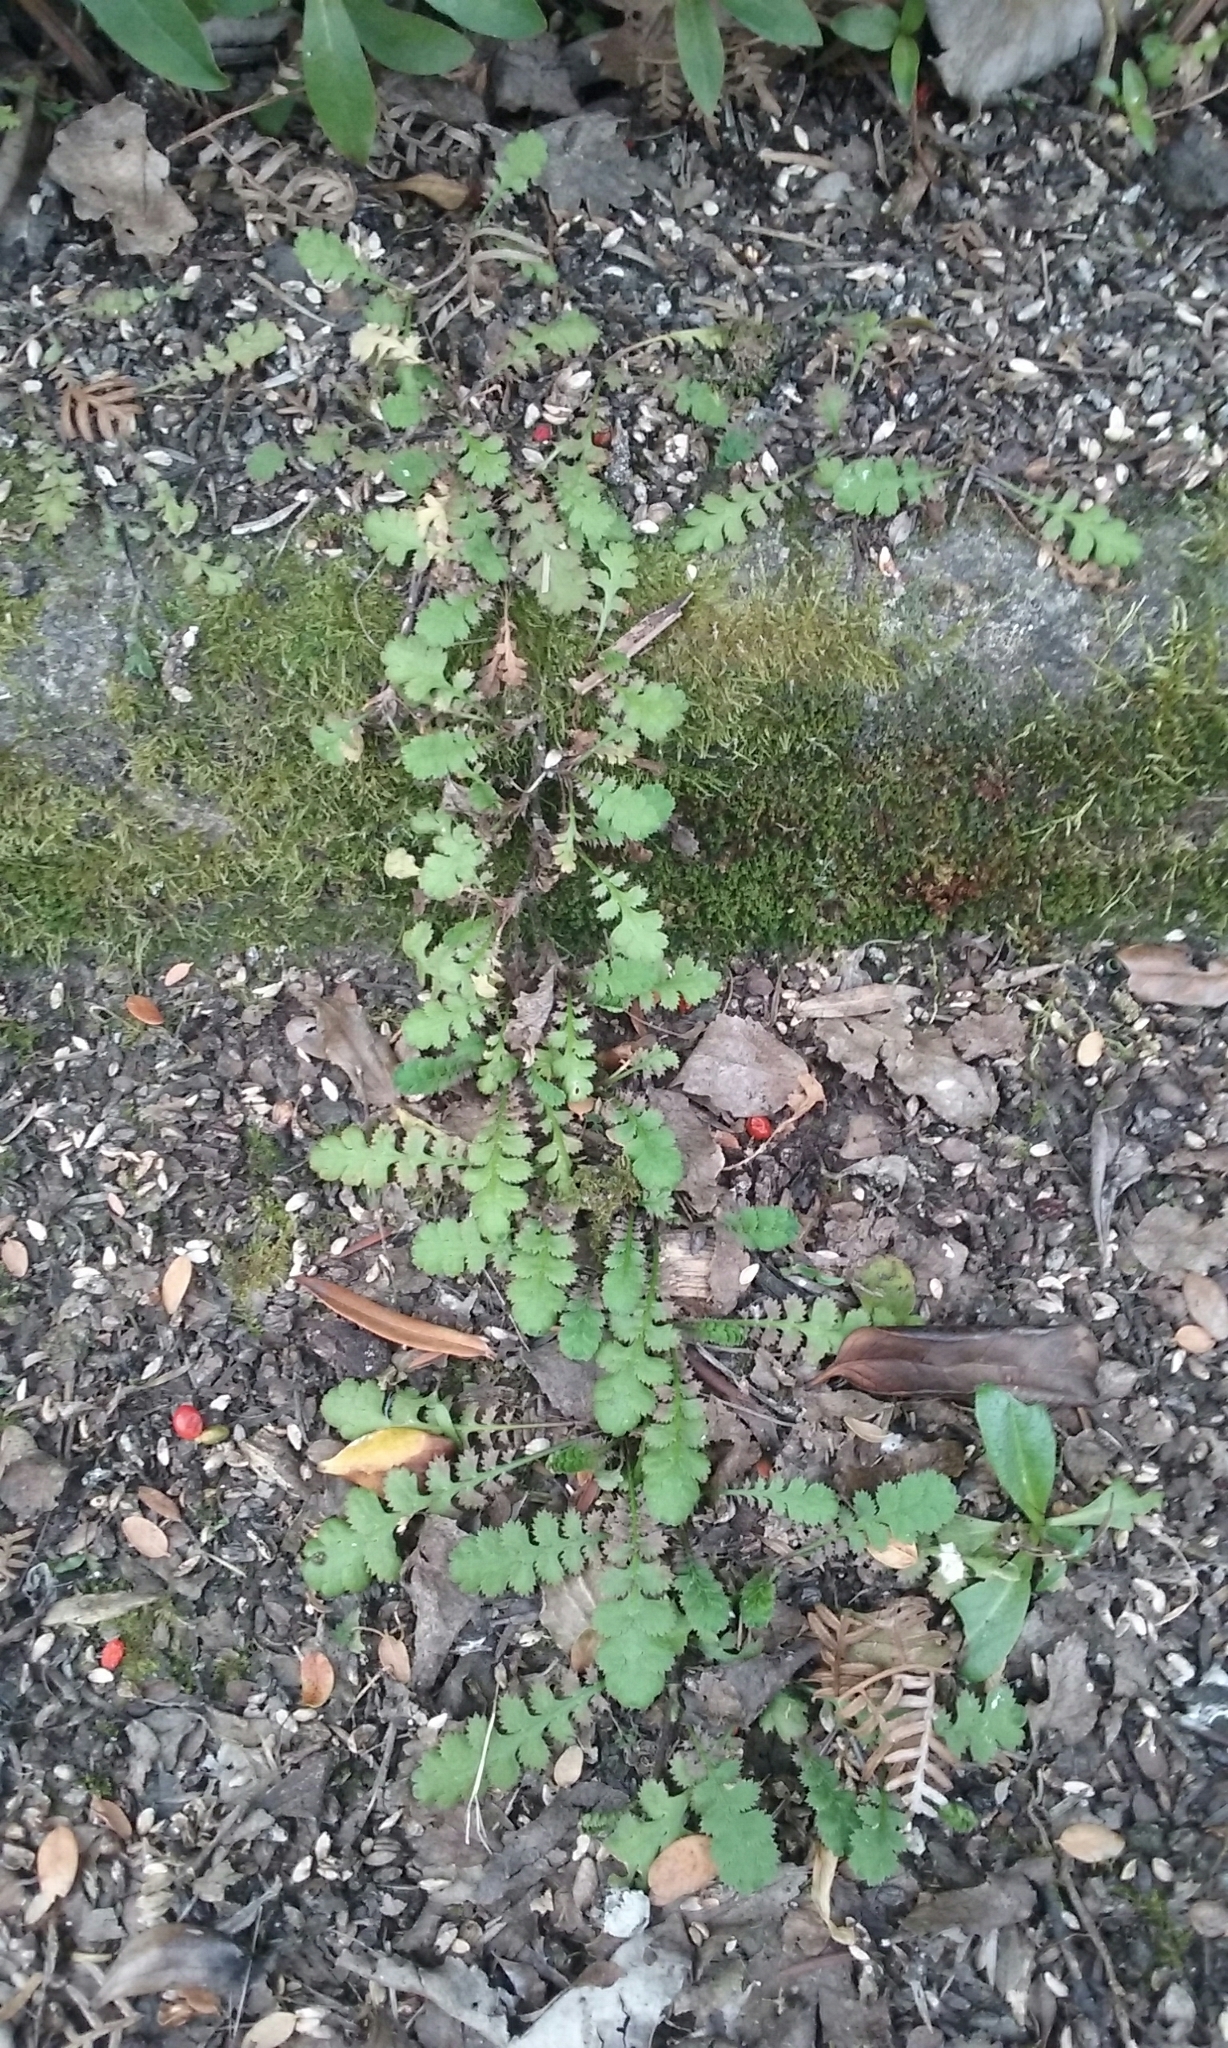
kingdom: Plantae
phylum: Tracheophyta
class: Magnoliopsida
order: Asterales
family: Asteraceae
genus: Leptinella
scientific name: Leptinella dioica
